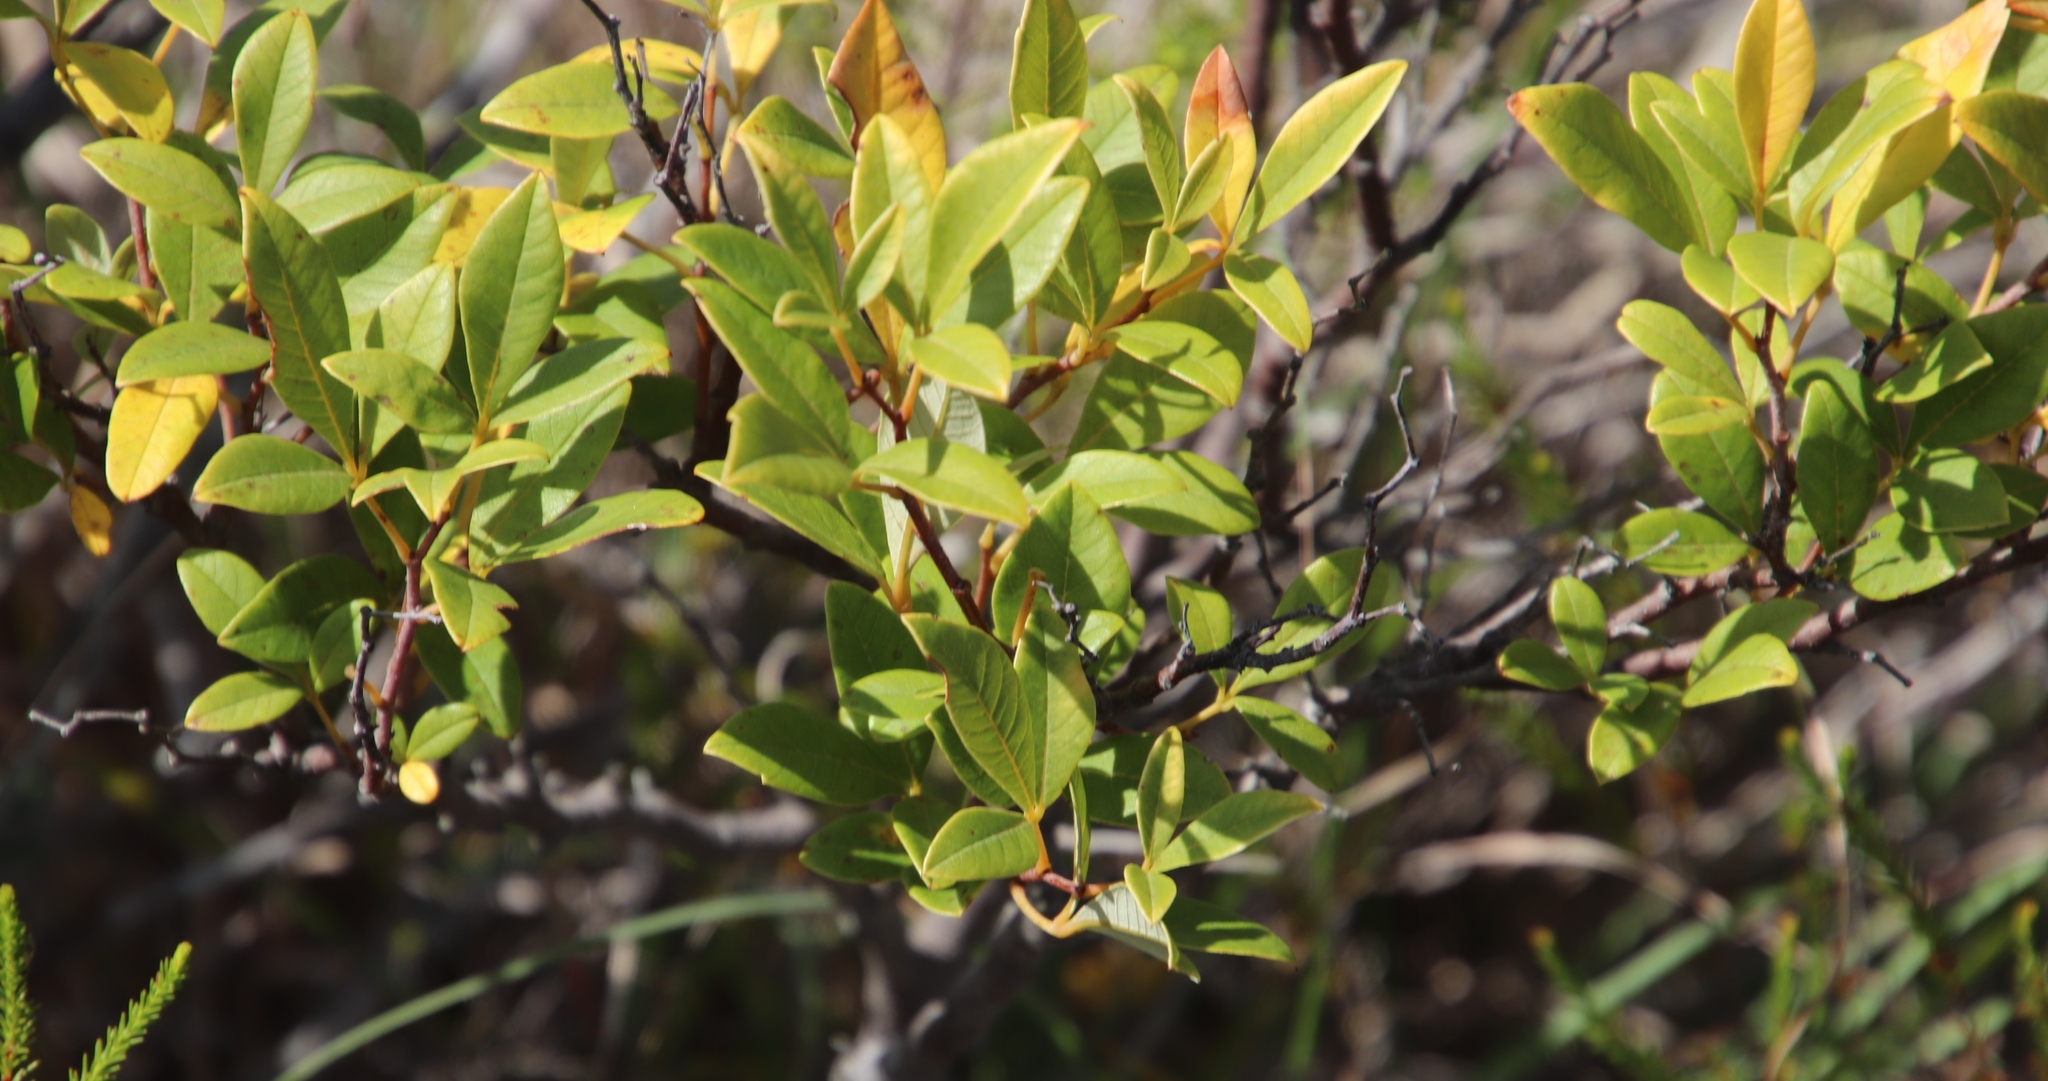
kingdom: Plantae
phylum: Tracheophyta
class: Magnoliopsida
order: Sapindales
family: Anacardiaceae
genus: Searsia
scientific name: Searsia tomentosa
